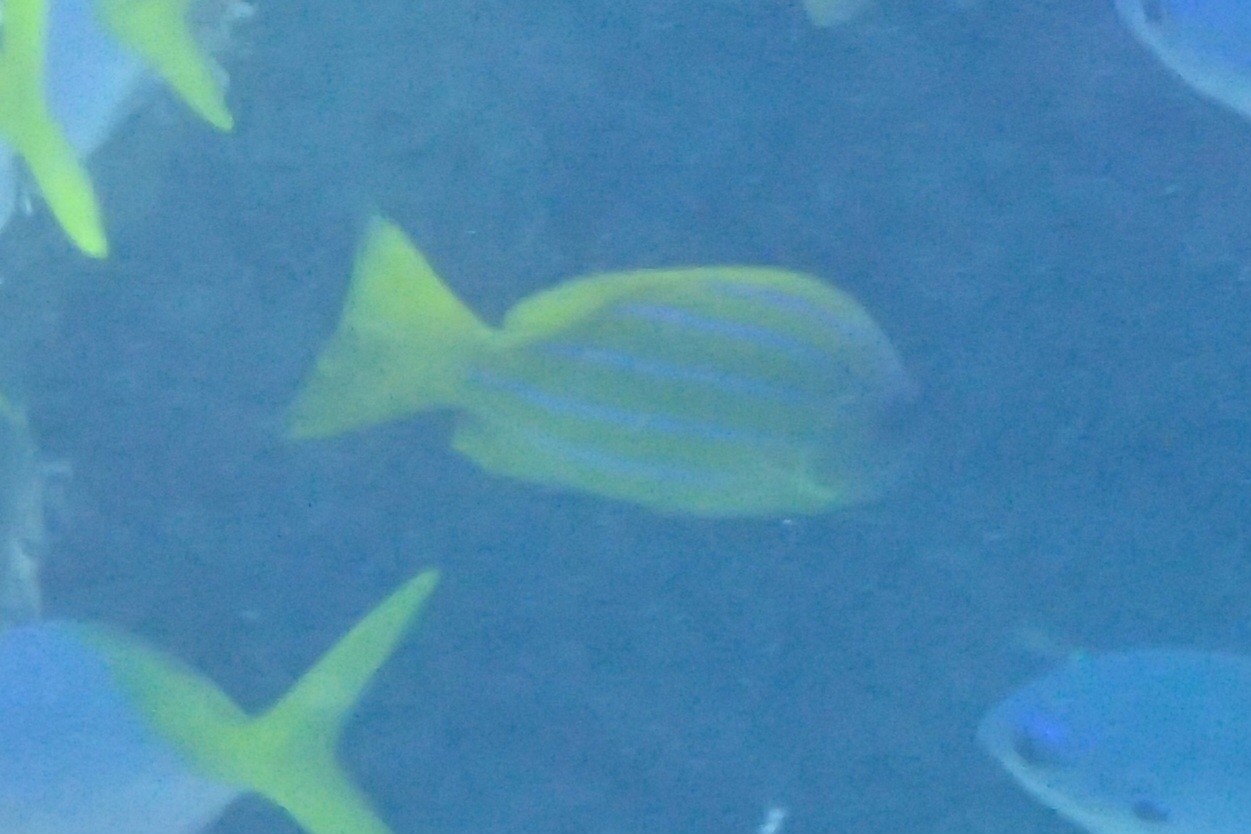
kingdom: Animalia
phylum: Chordata
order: Perciformes
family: Lutjanidae
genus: Lutjanus
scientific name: Lutjanus quinquelineatus
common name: Five-lined snapper
